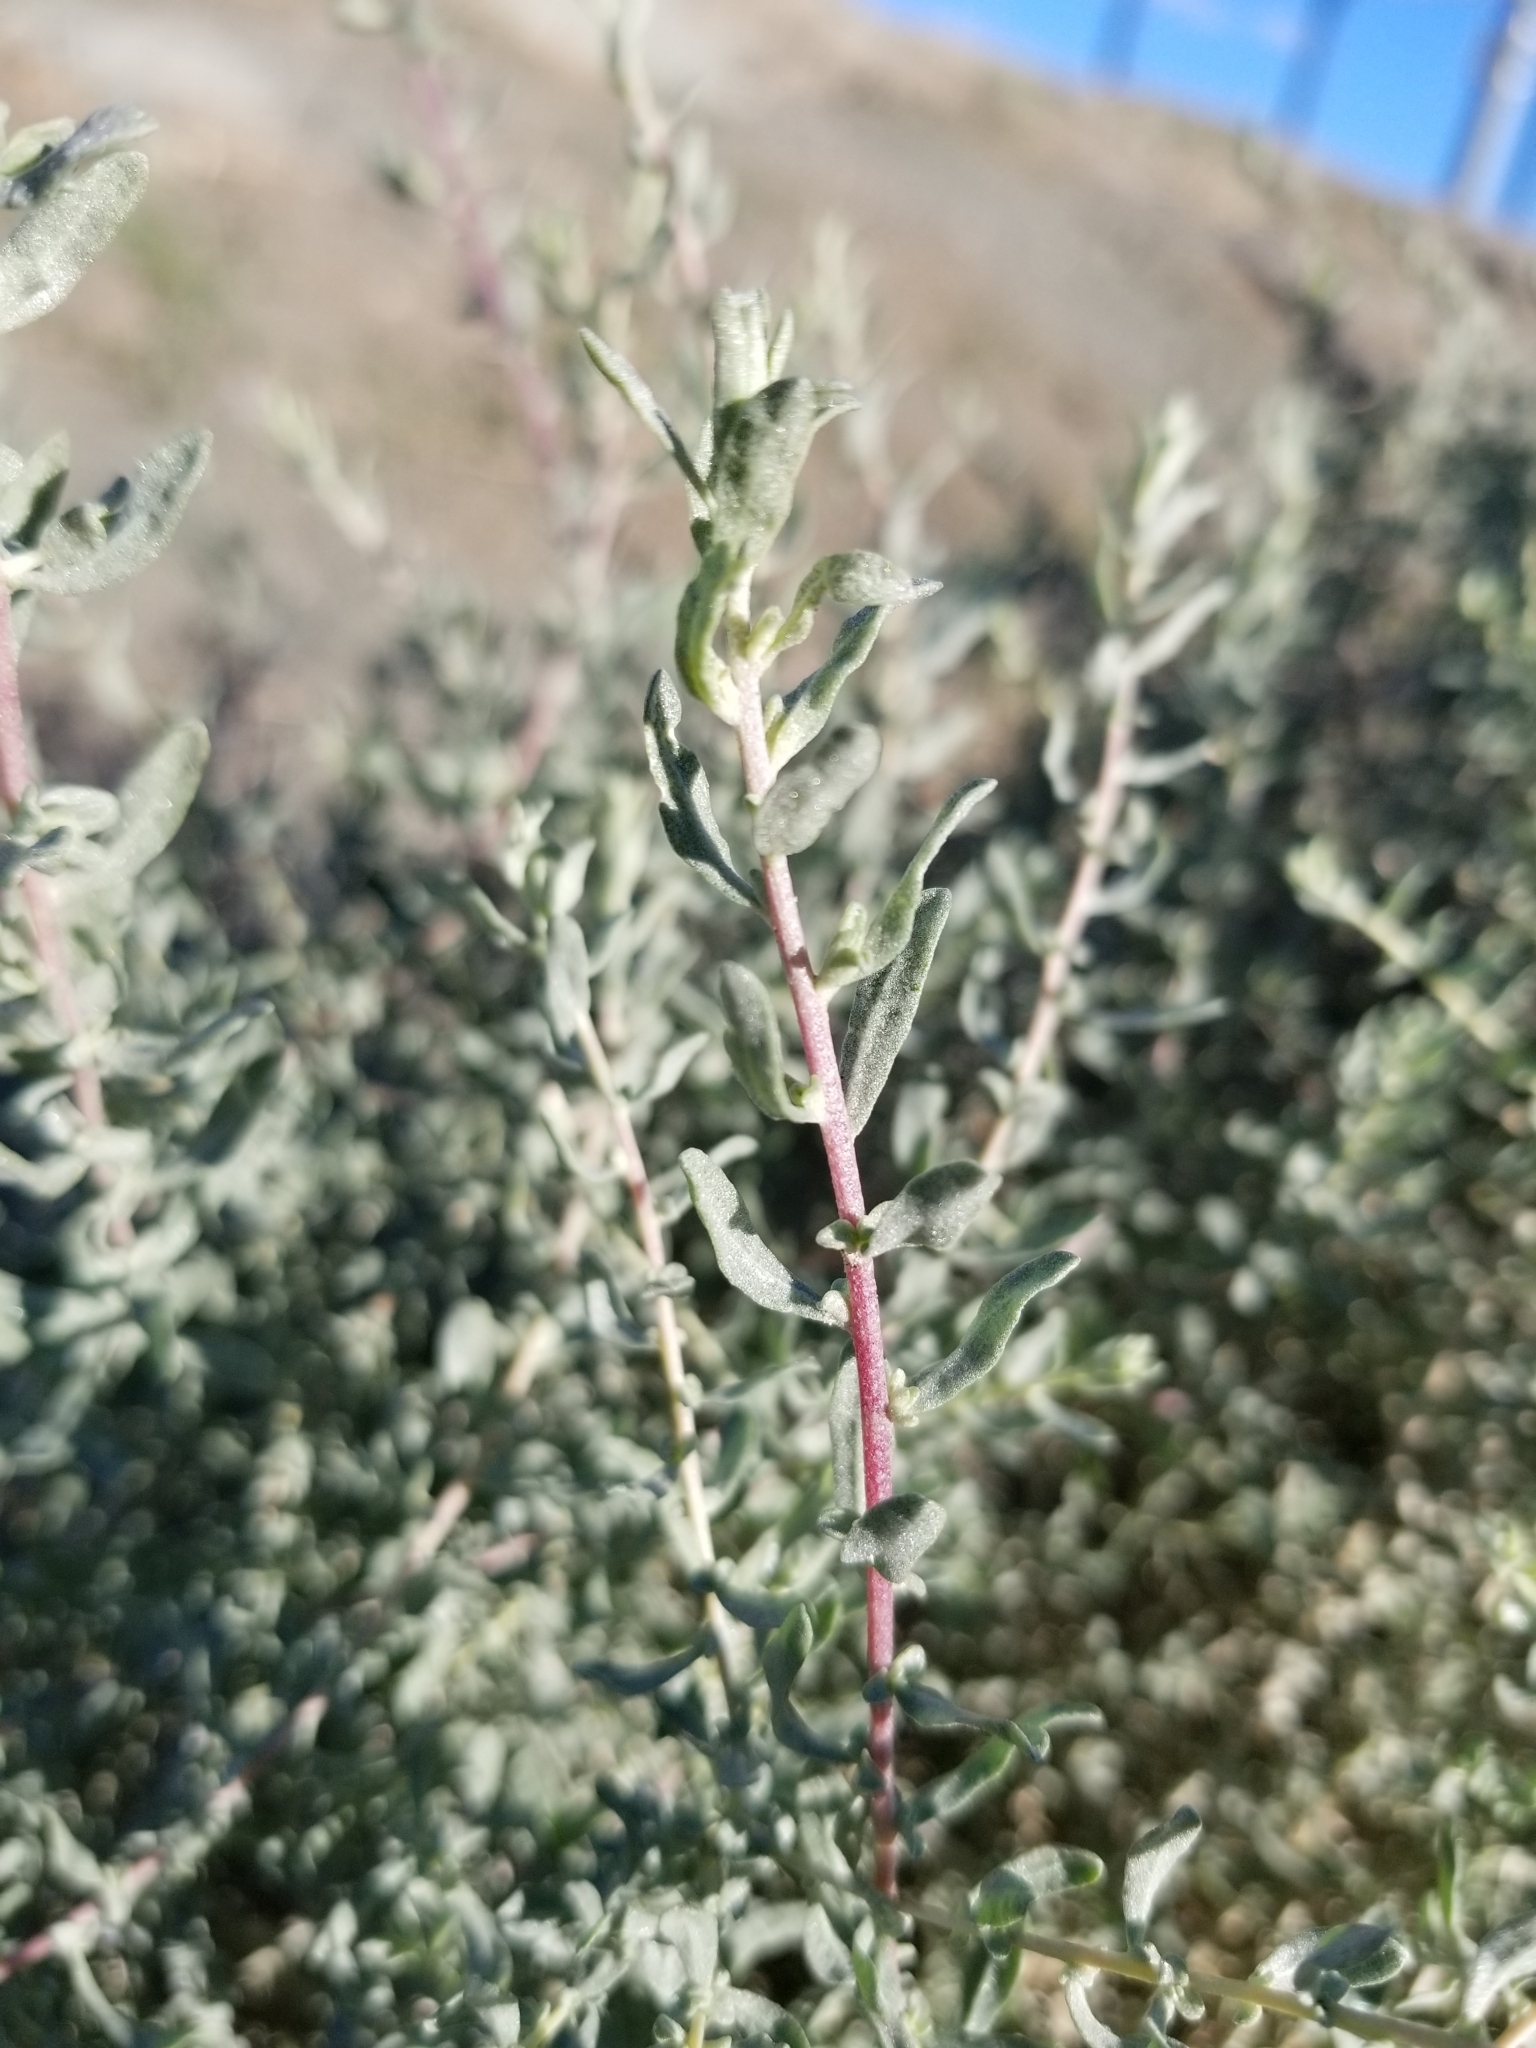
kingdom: Plantae
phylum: Tracheophyta
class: Magnoliopsida
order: Caryophyllales
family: Amaranthaceae
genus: Atriplex
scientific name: Atriplex canescens
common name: Four-wing saltbush
